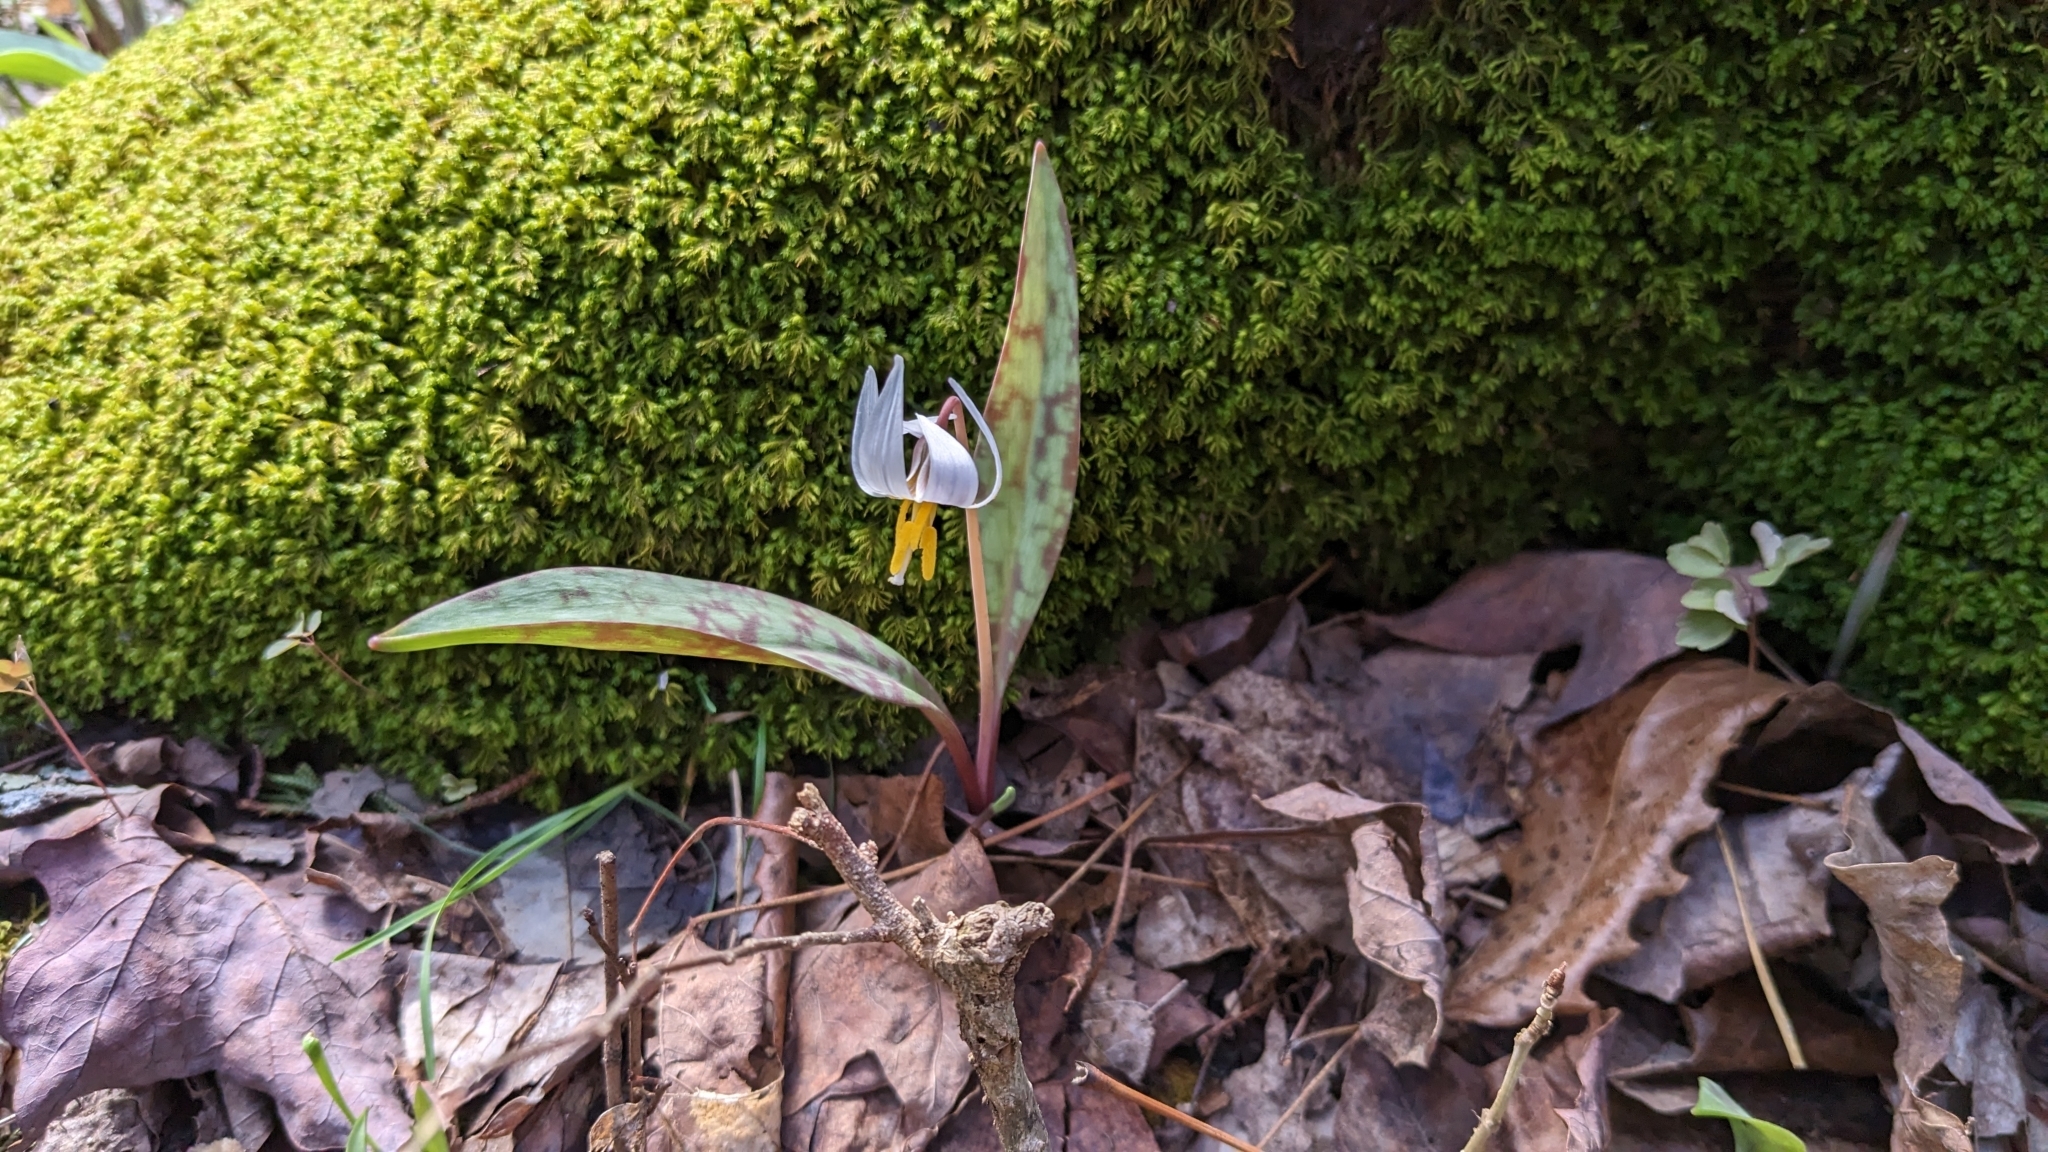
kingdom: Plantae
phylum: Tracheophyta
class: Liliopsida
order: Liliales
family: Liliaceae
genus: Erythronium
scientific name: Erythronium albidum
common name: White trout-lily
